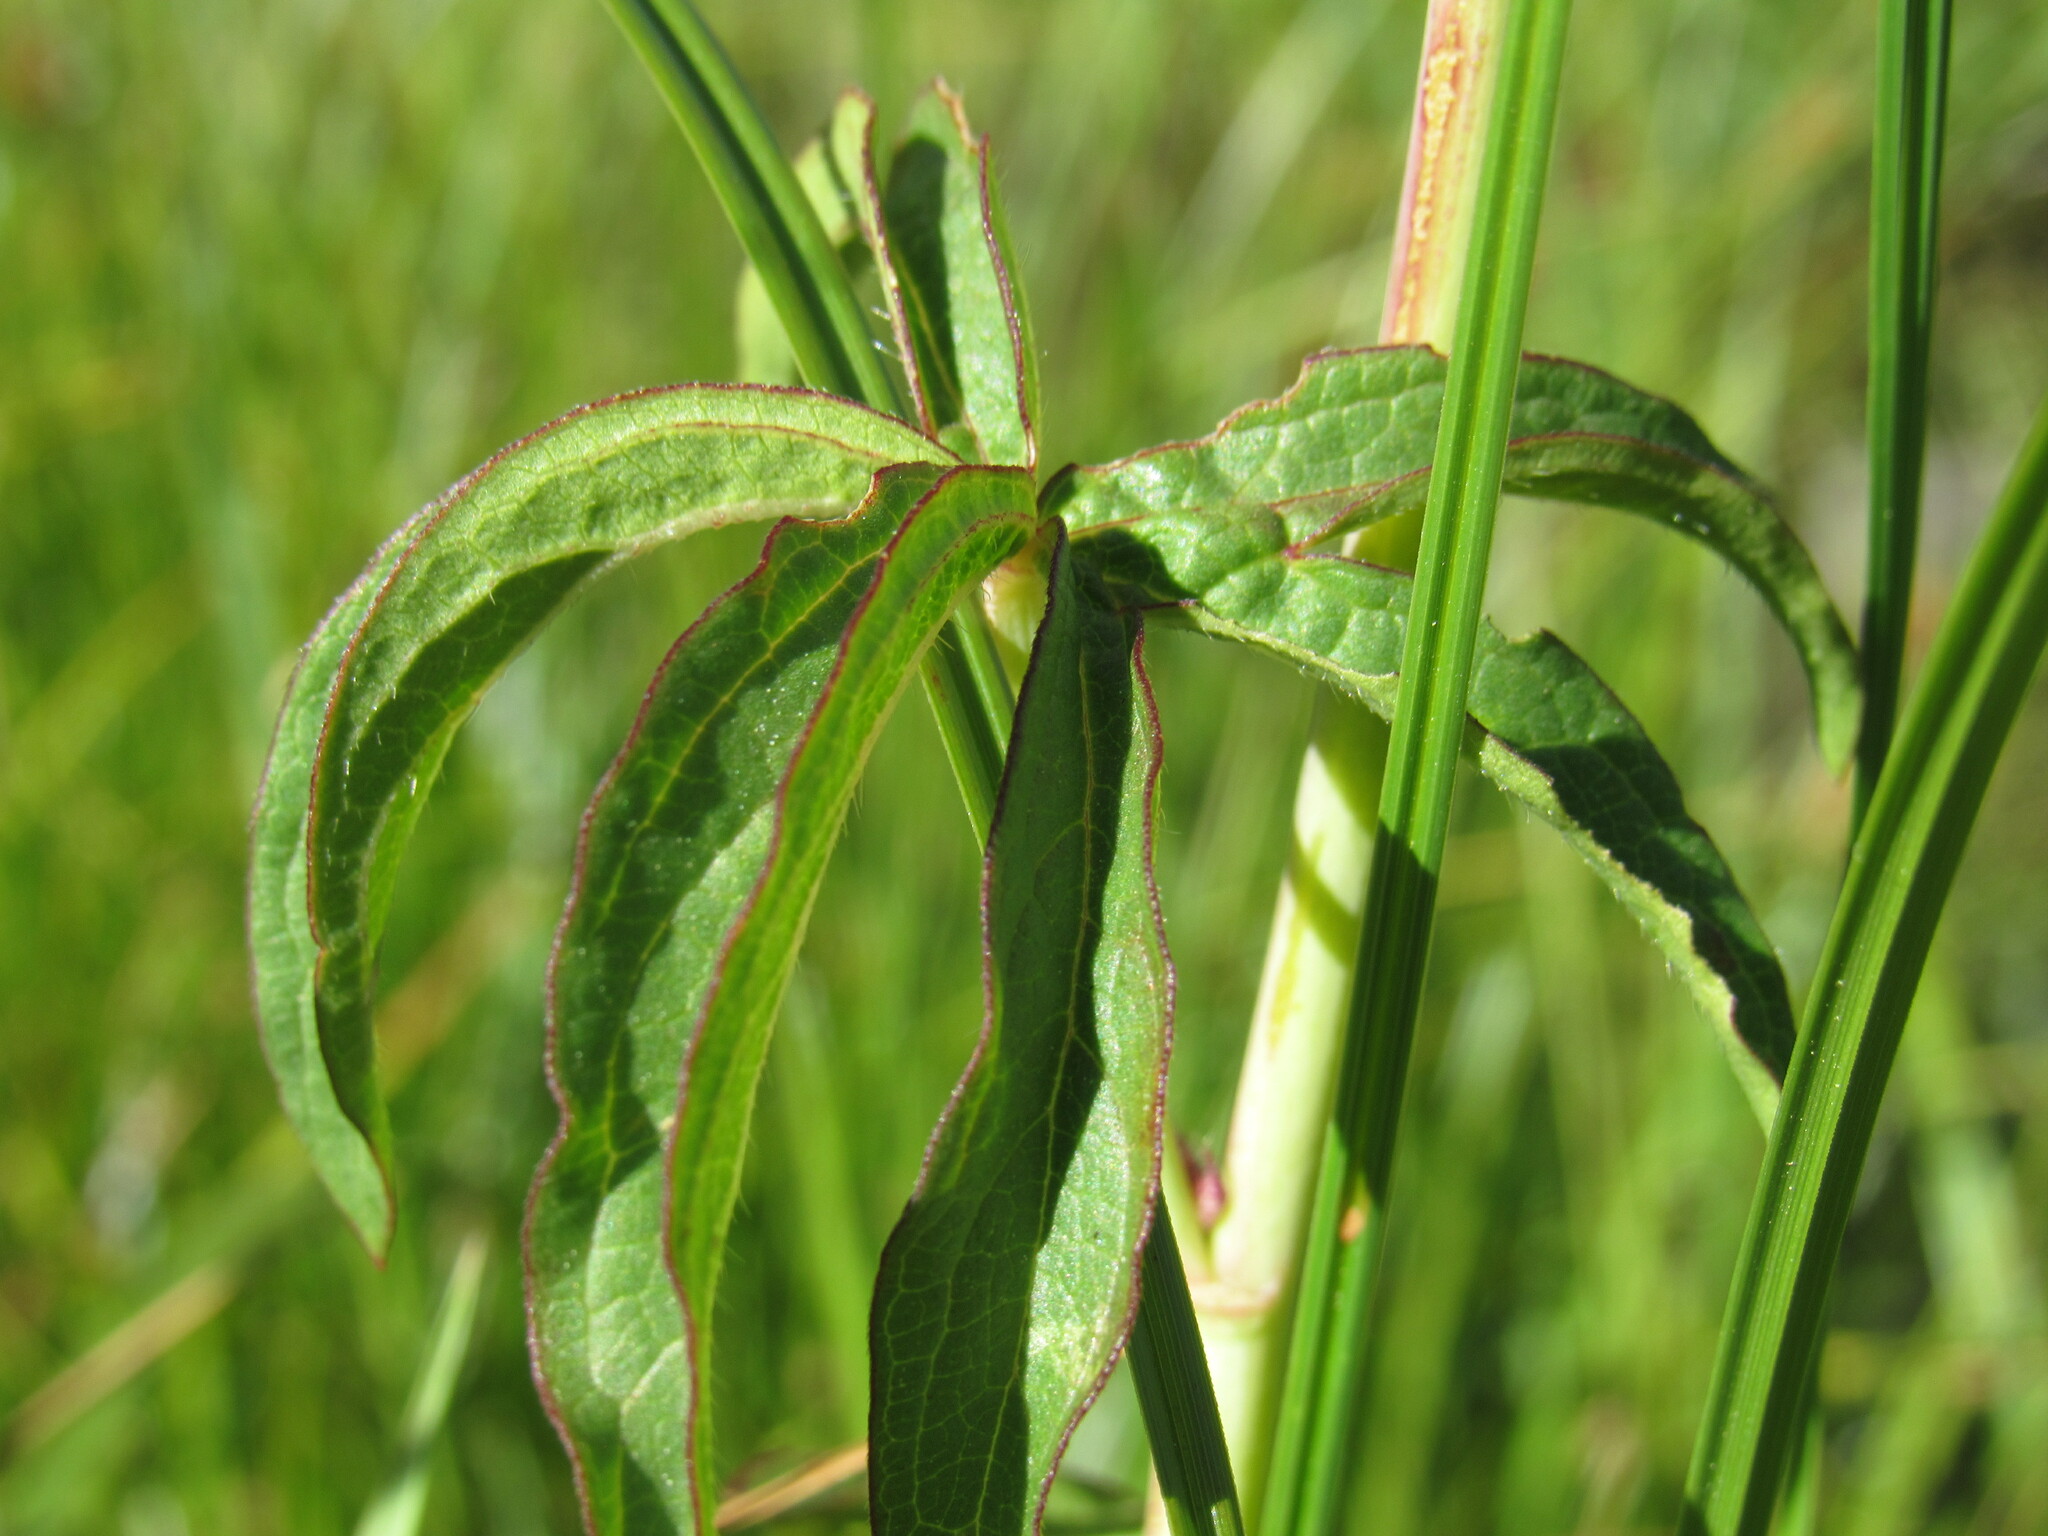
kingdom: Plantae
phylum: Tracheophyta
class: Magnoliopsida
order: Malvales
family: Malvaceae
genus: Sidalcea
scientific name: Sidalcea candida
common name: Prairie-mallow
